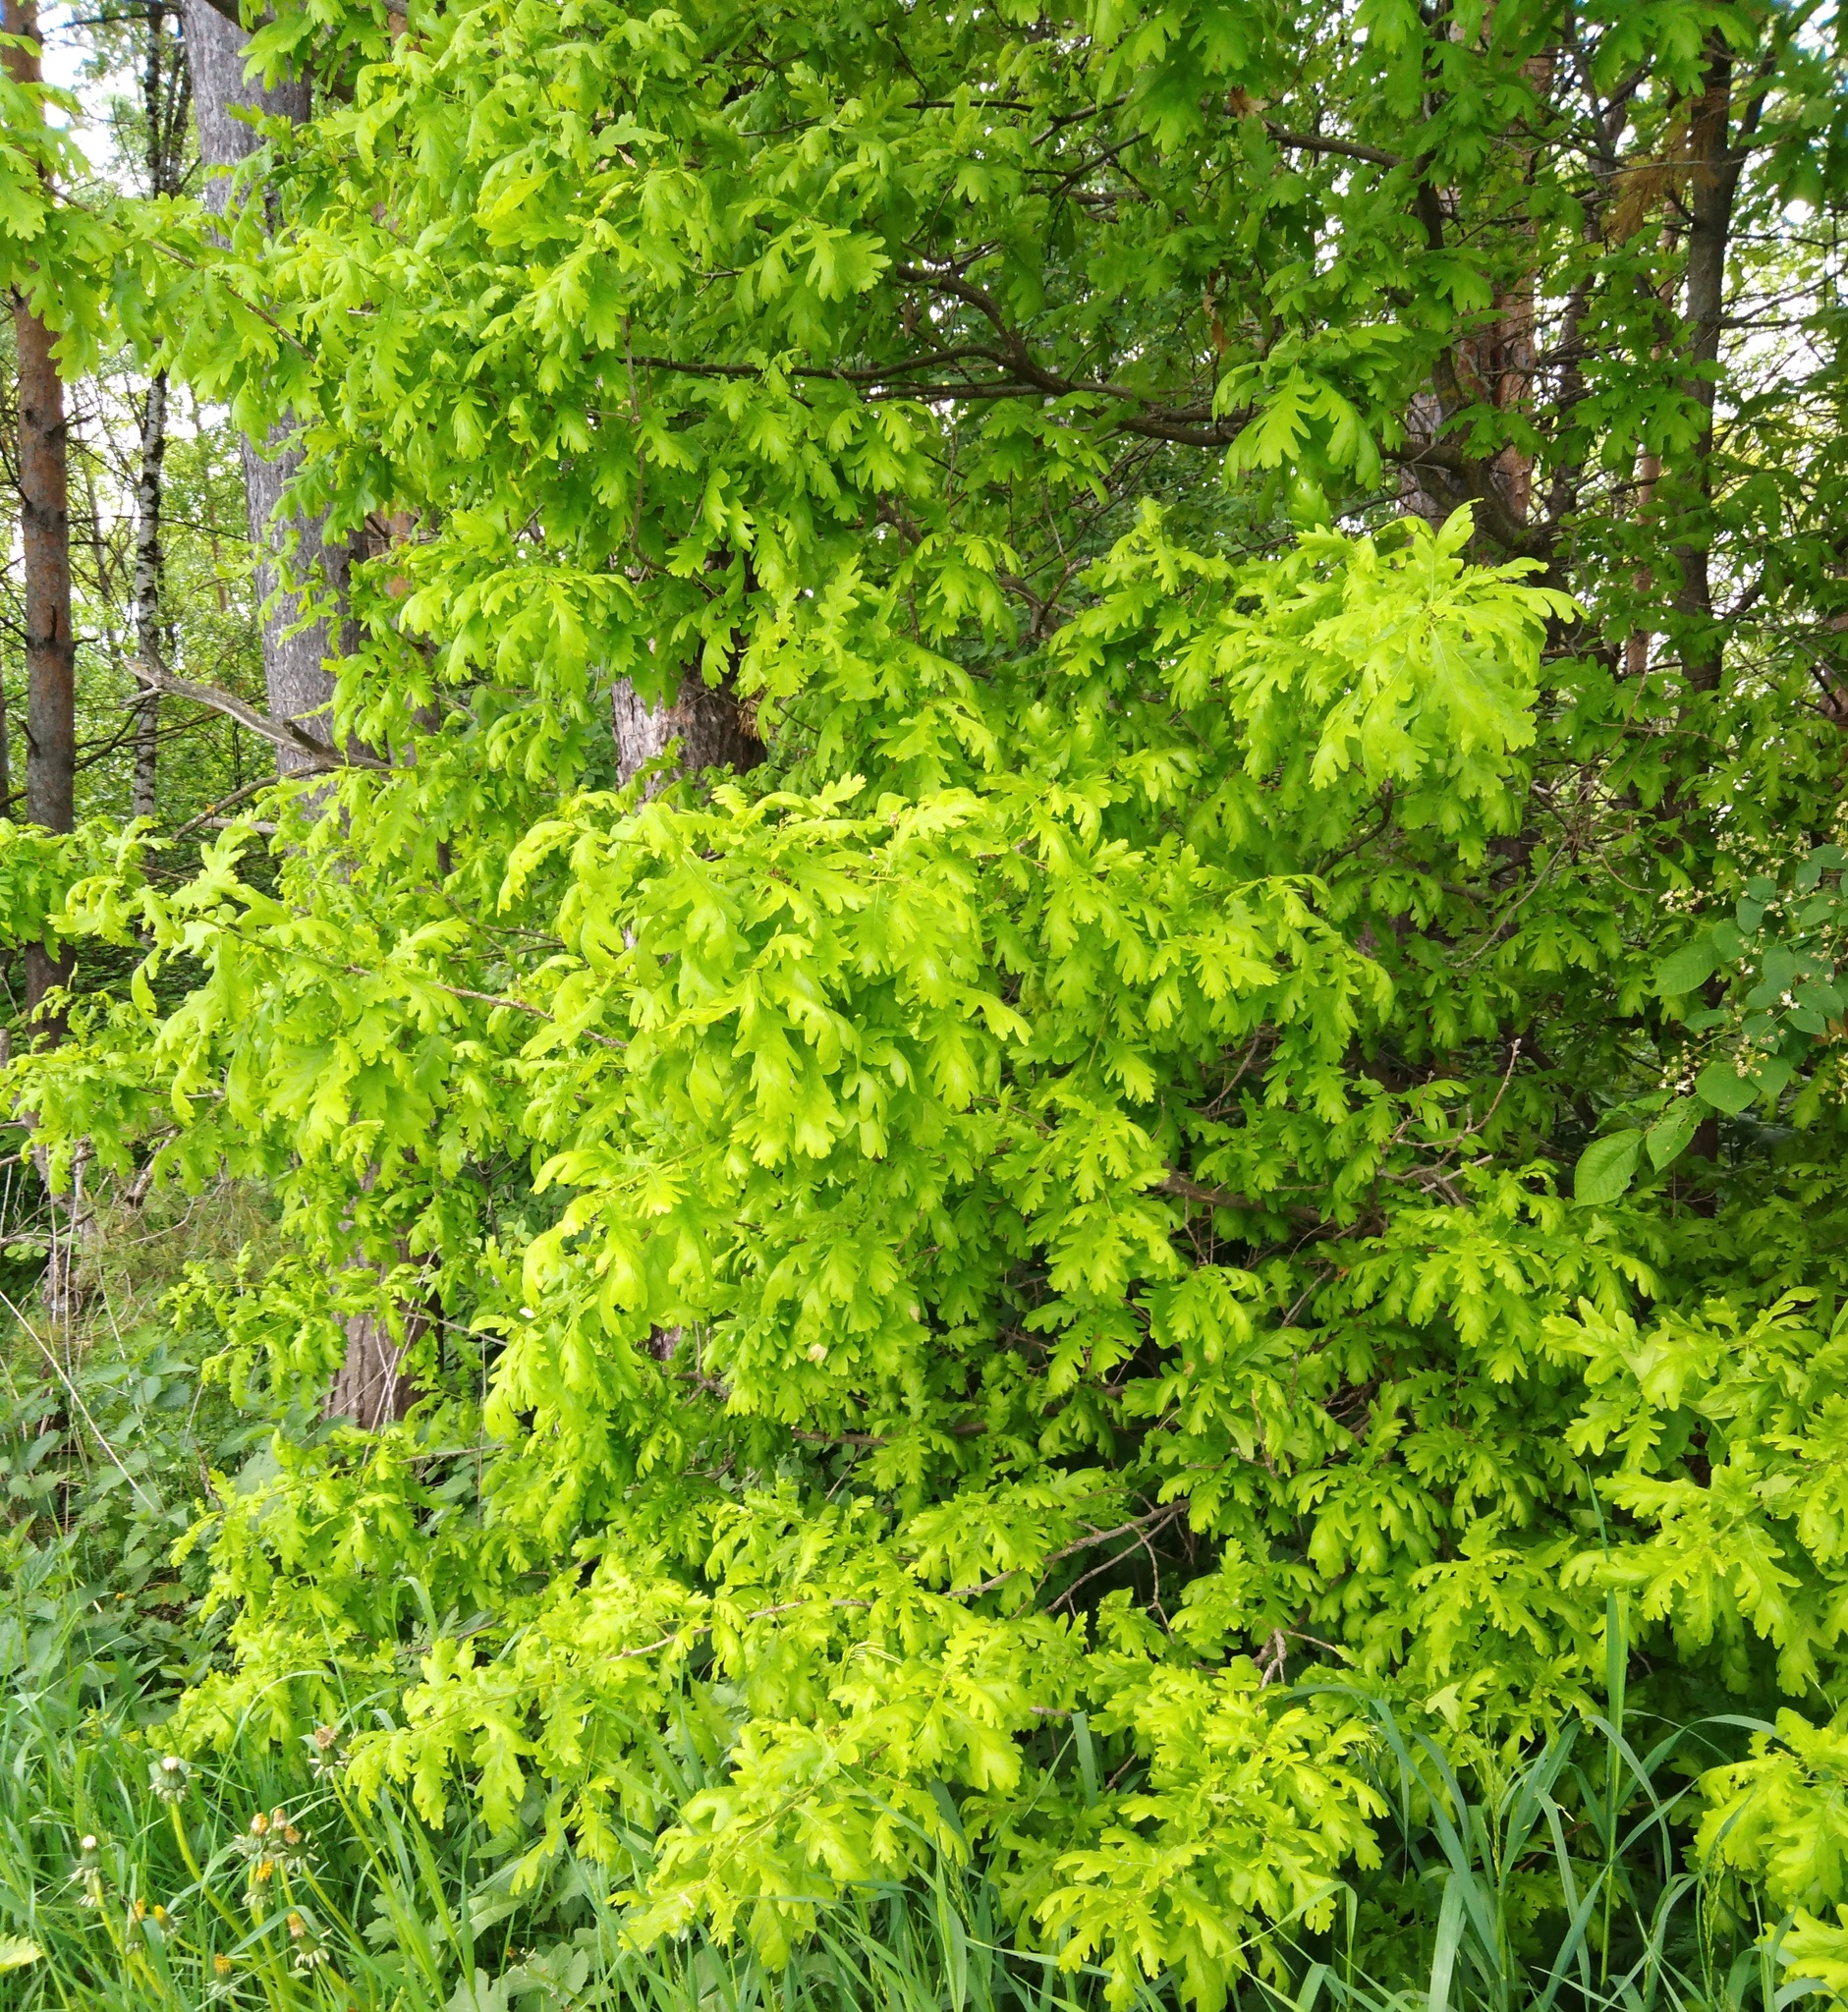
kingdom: Plantae
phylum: Tracheophyta
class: Magnoliopsida
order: Fagales
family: Fagaceae
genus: Quercus
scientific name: Quercus robur
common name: Pedunculate oak
